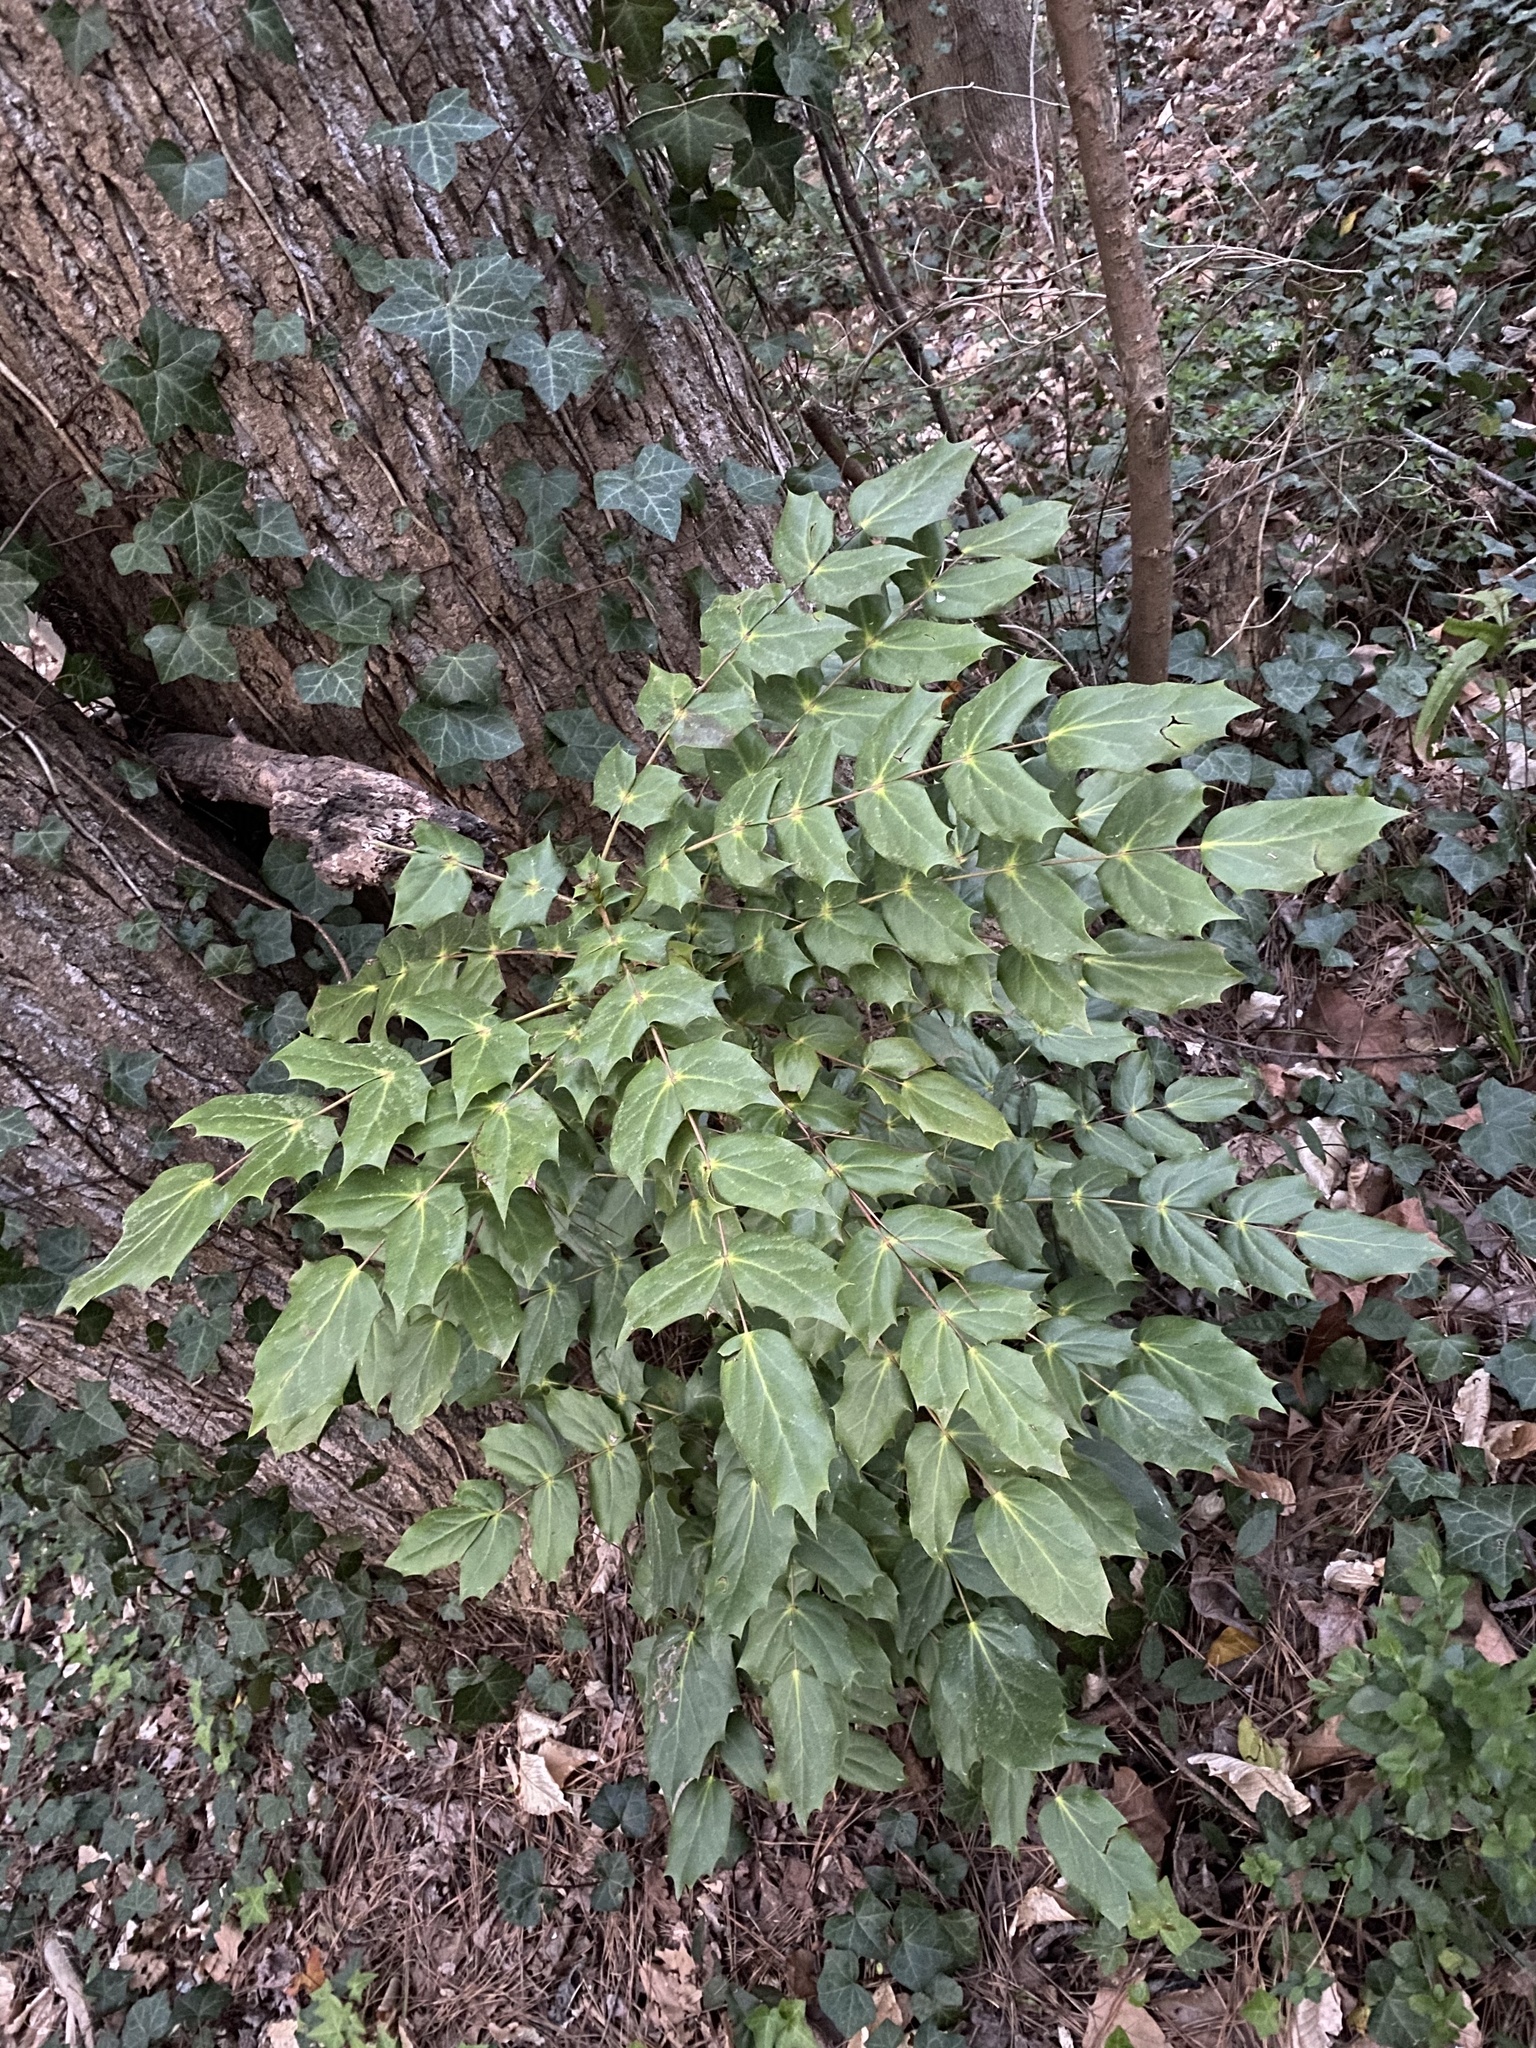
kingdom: Plantae
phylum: Tracheophyta
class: Magnoliopsida
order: Ranunculales
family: Berberidaceae
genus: Mahonia
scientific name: Mahonia bealei
